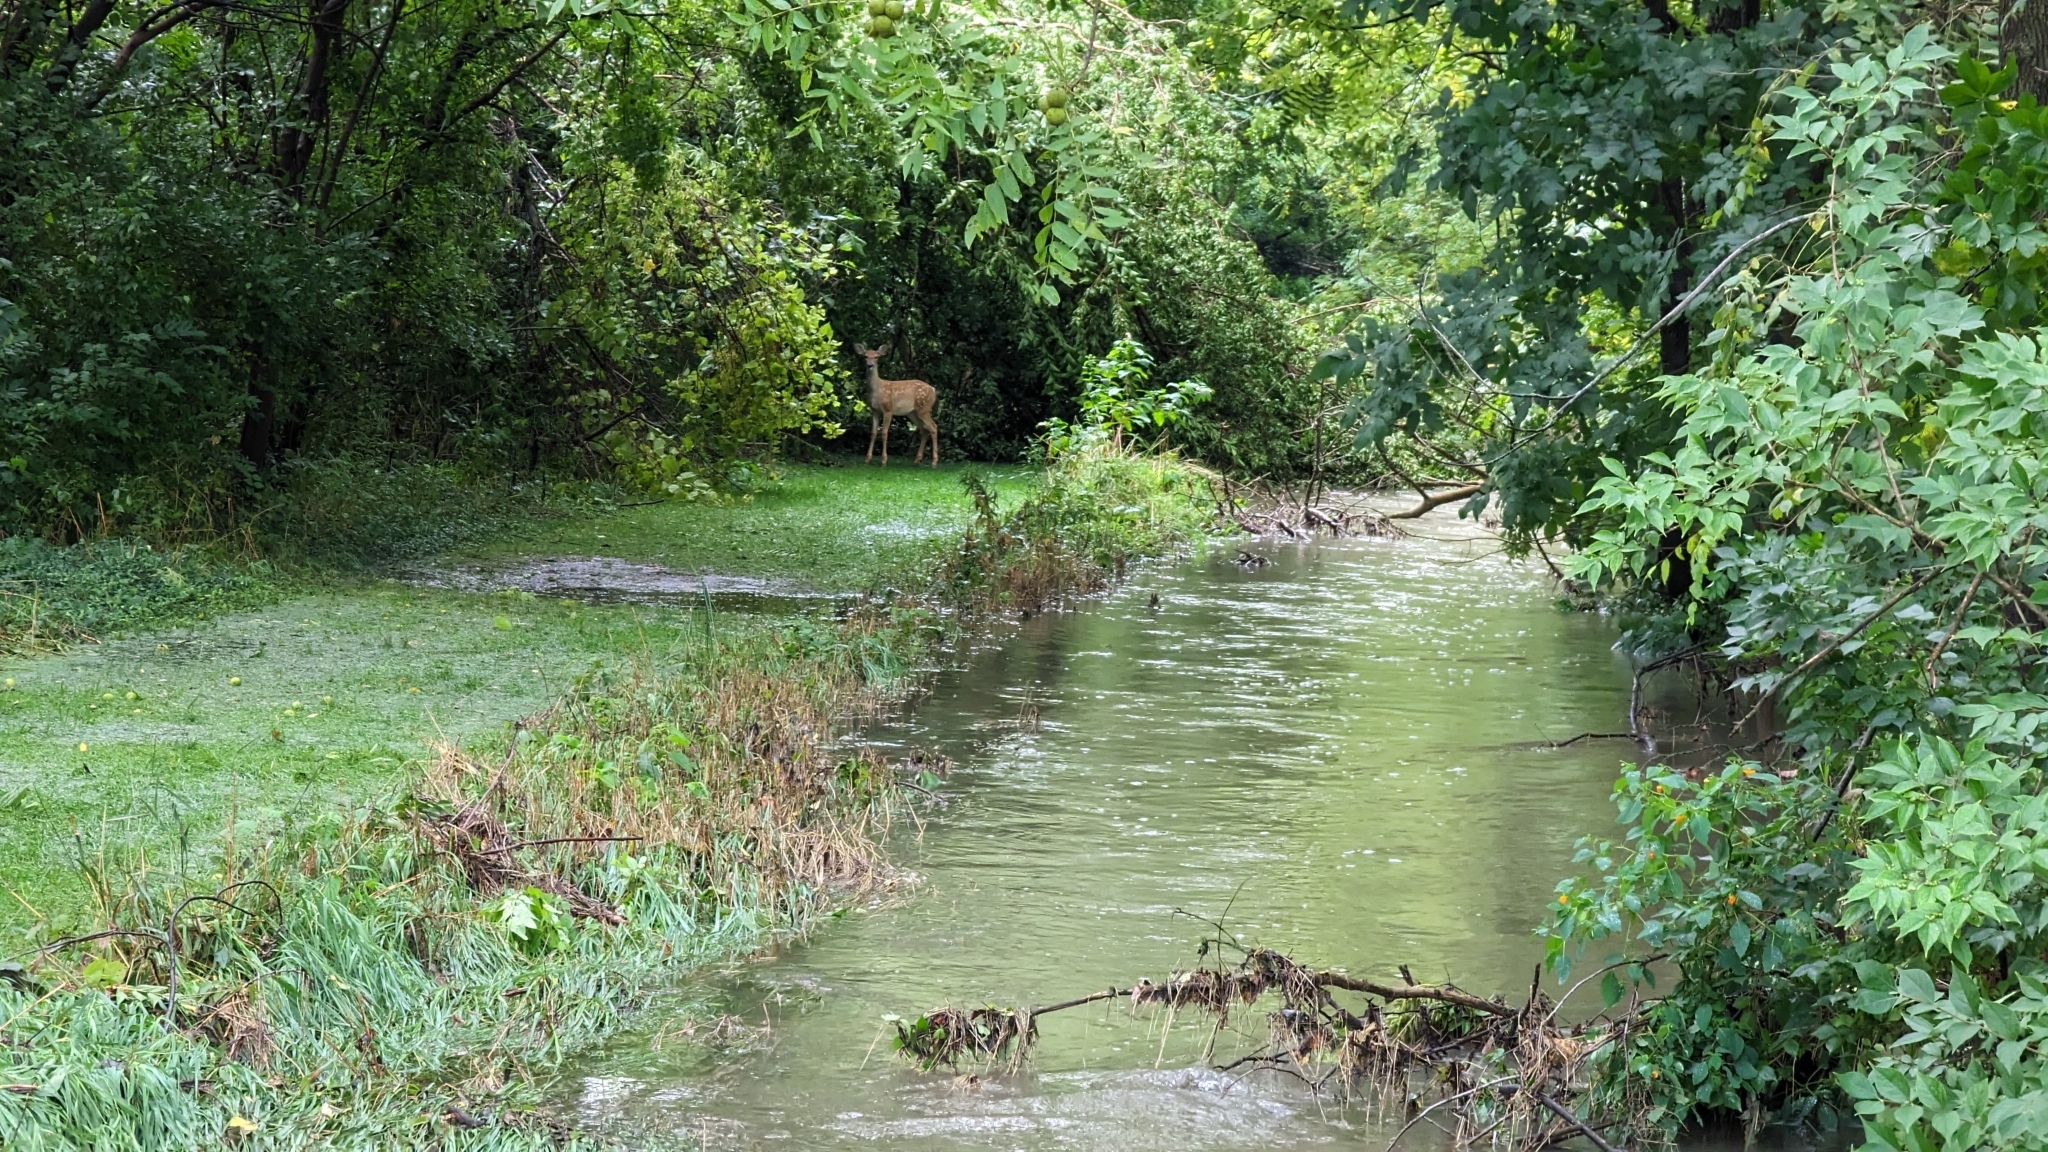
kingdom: Animalia
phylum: Chordata
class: Mammalia
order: Artiodactyla
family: Cervidae
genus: Odocoileus
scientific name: Odocoileus virginianus
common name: White-tailed deer
